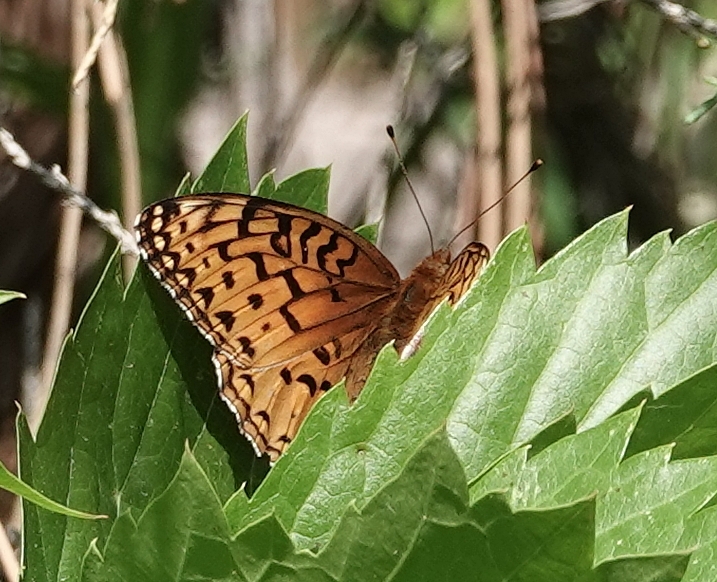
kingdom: Animalia
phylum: Arthropoda
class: Insecta
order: Lepidoptera
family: Nymphalidae
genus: Speyeria
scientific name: Speyeria aphrodite
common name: Aphrodite friitllary
